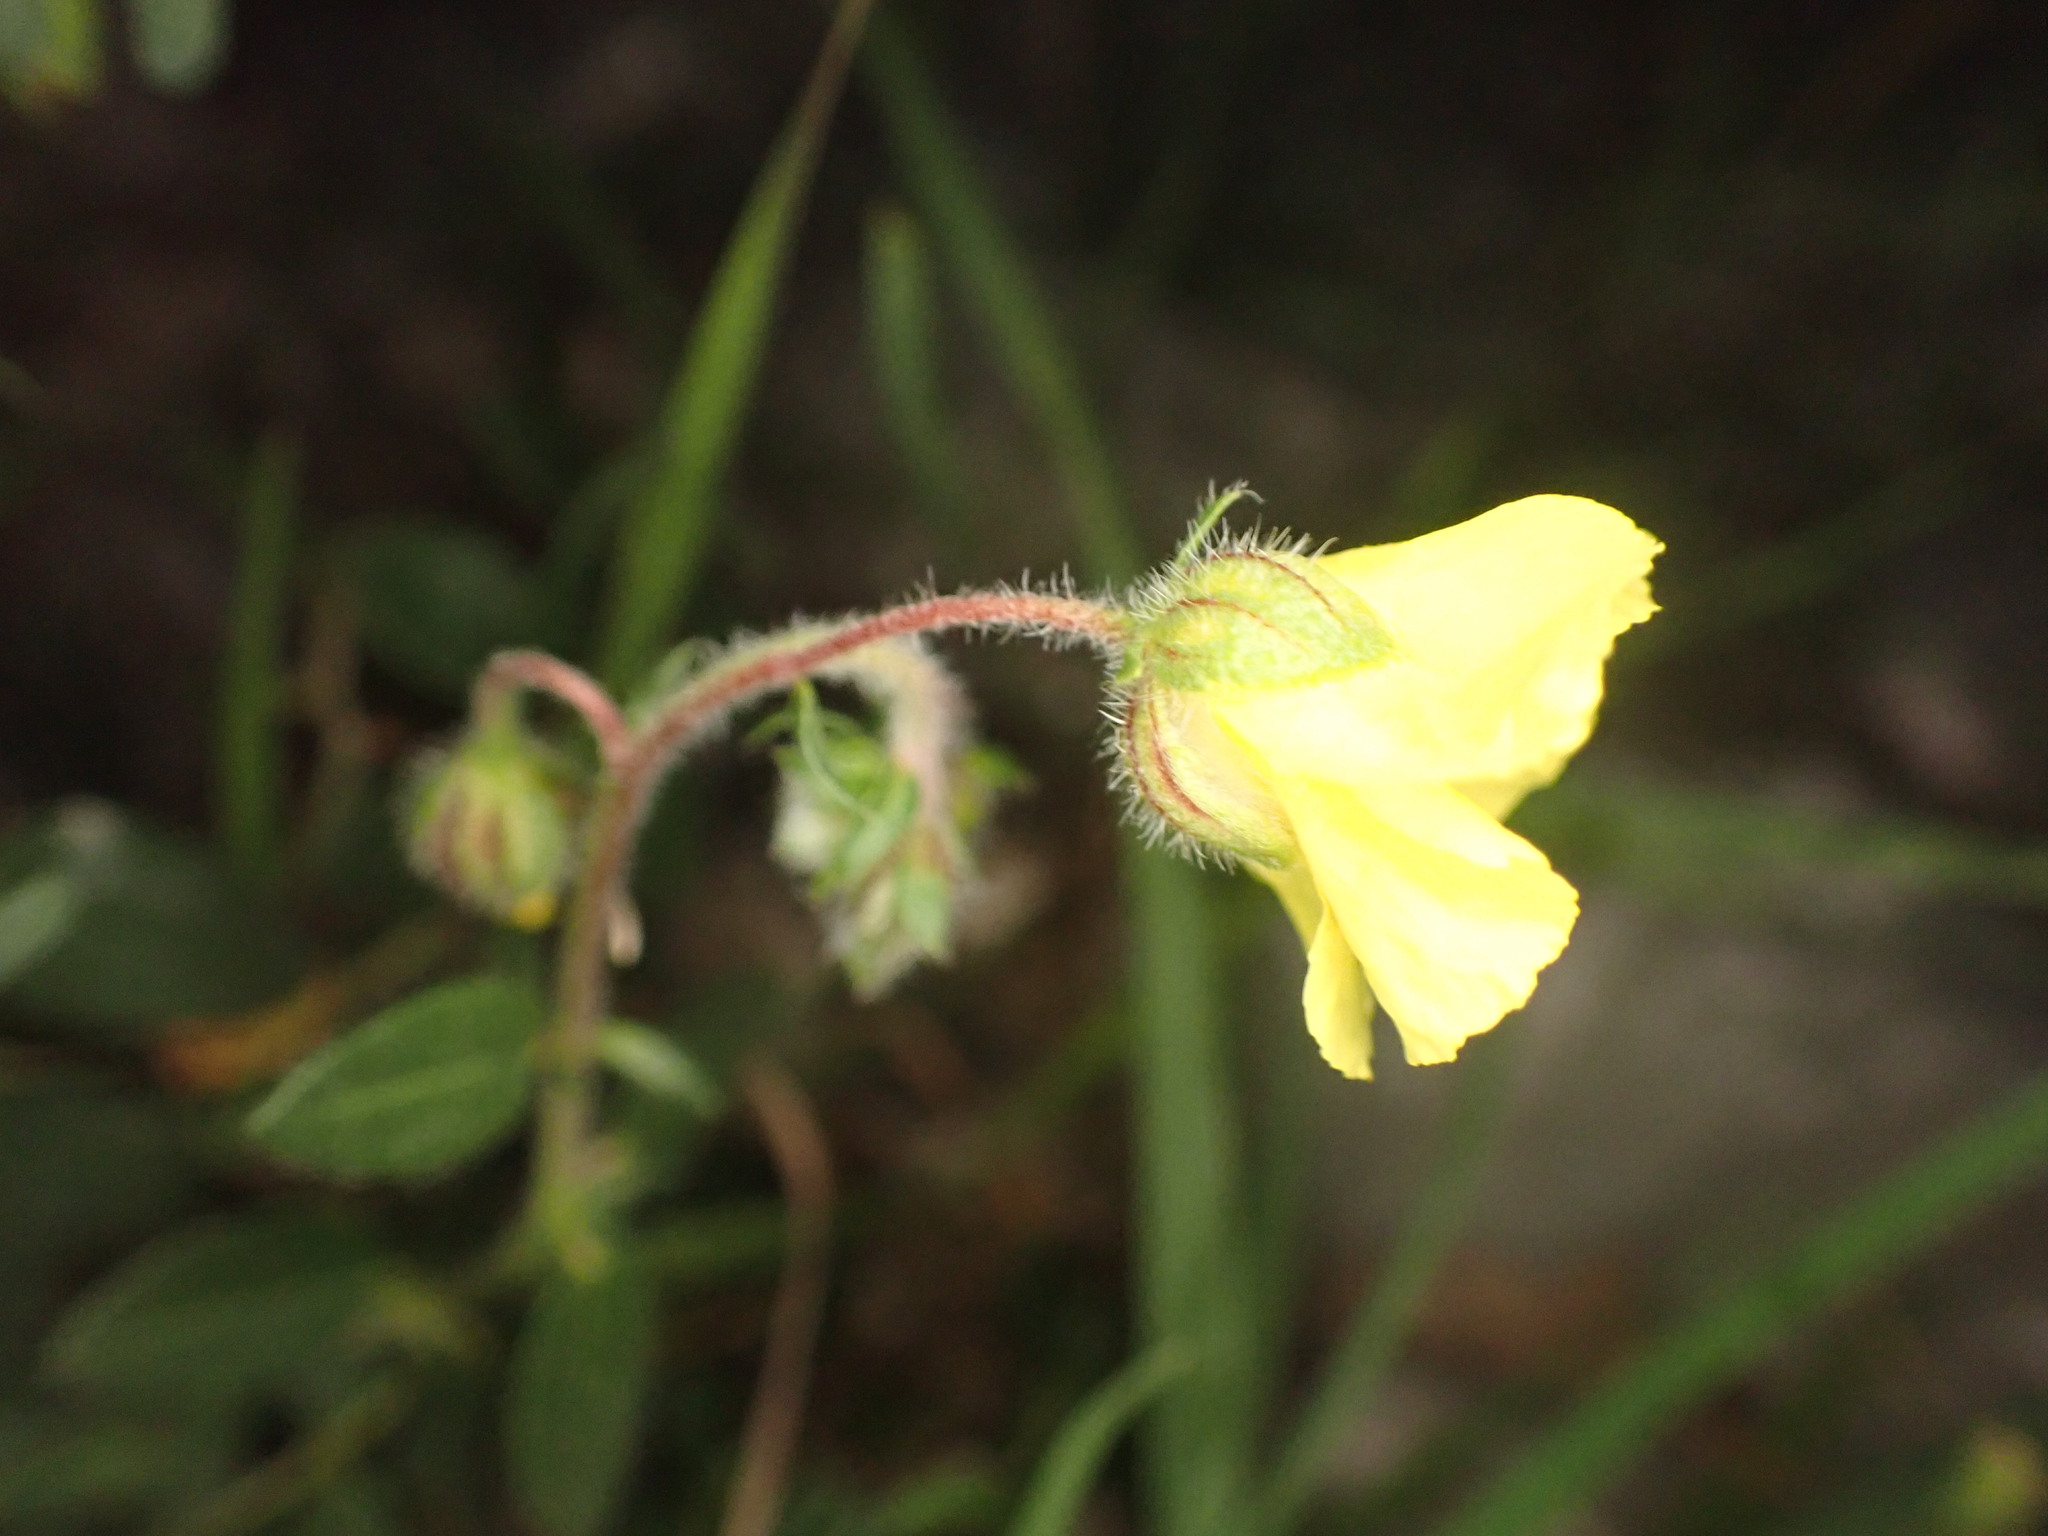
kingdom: Plantae
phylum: Tracheophyta
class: Magnoliopsida
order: Malvales
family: Cistaceae
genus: Helianthemum
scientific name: Helianthemum nummularium
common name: Common rock-rose
